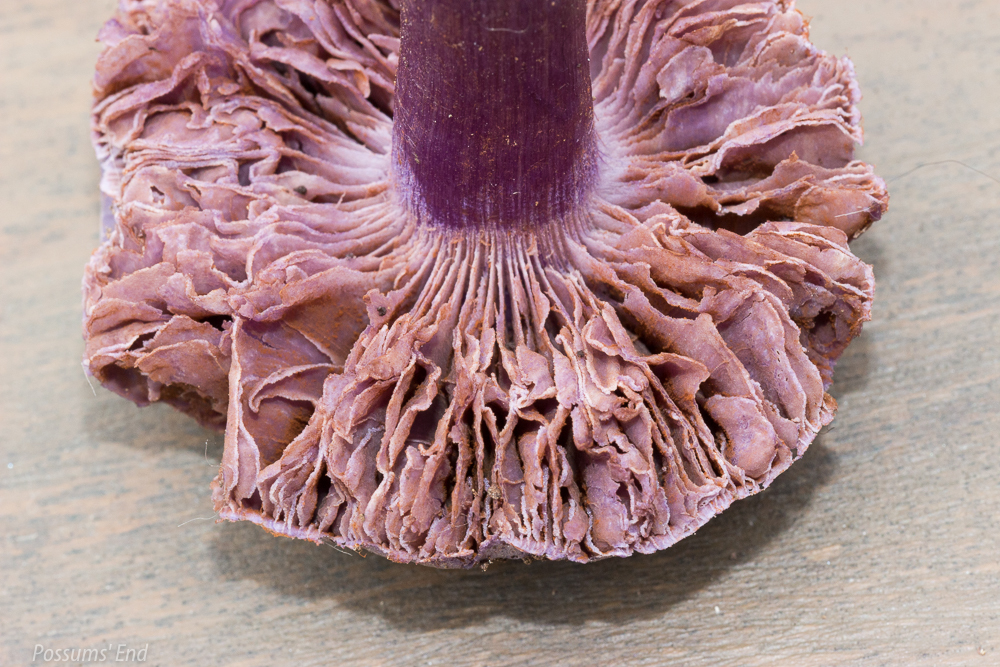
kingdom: Fungi
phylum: Basidiomycota
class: Agaricomycetes
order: Agaricales
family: Cortinariaceae
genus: Thaxterogaster
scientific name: Thaxterogaster austrovaginatus
